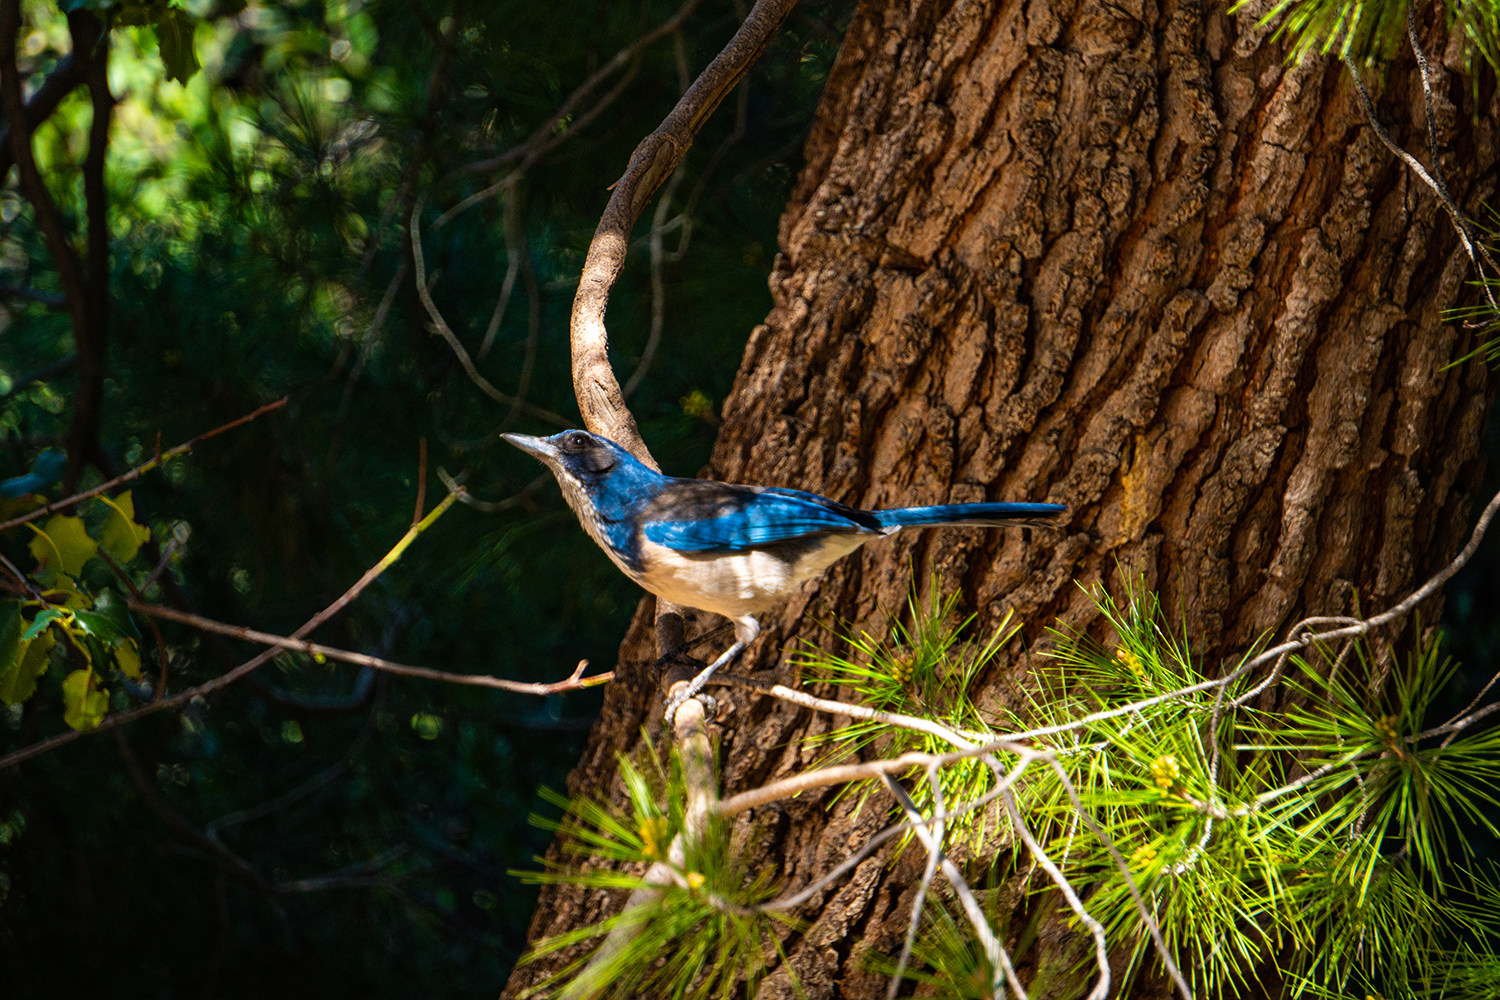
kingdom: Animalia
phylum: Chordata
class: Aves
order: Passeriformes
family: Corvidae
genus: Aphelocoma
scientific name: Aphelocoma californica
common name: California scrub-jay
